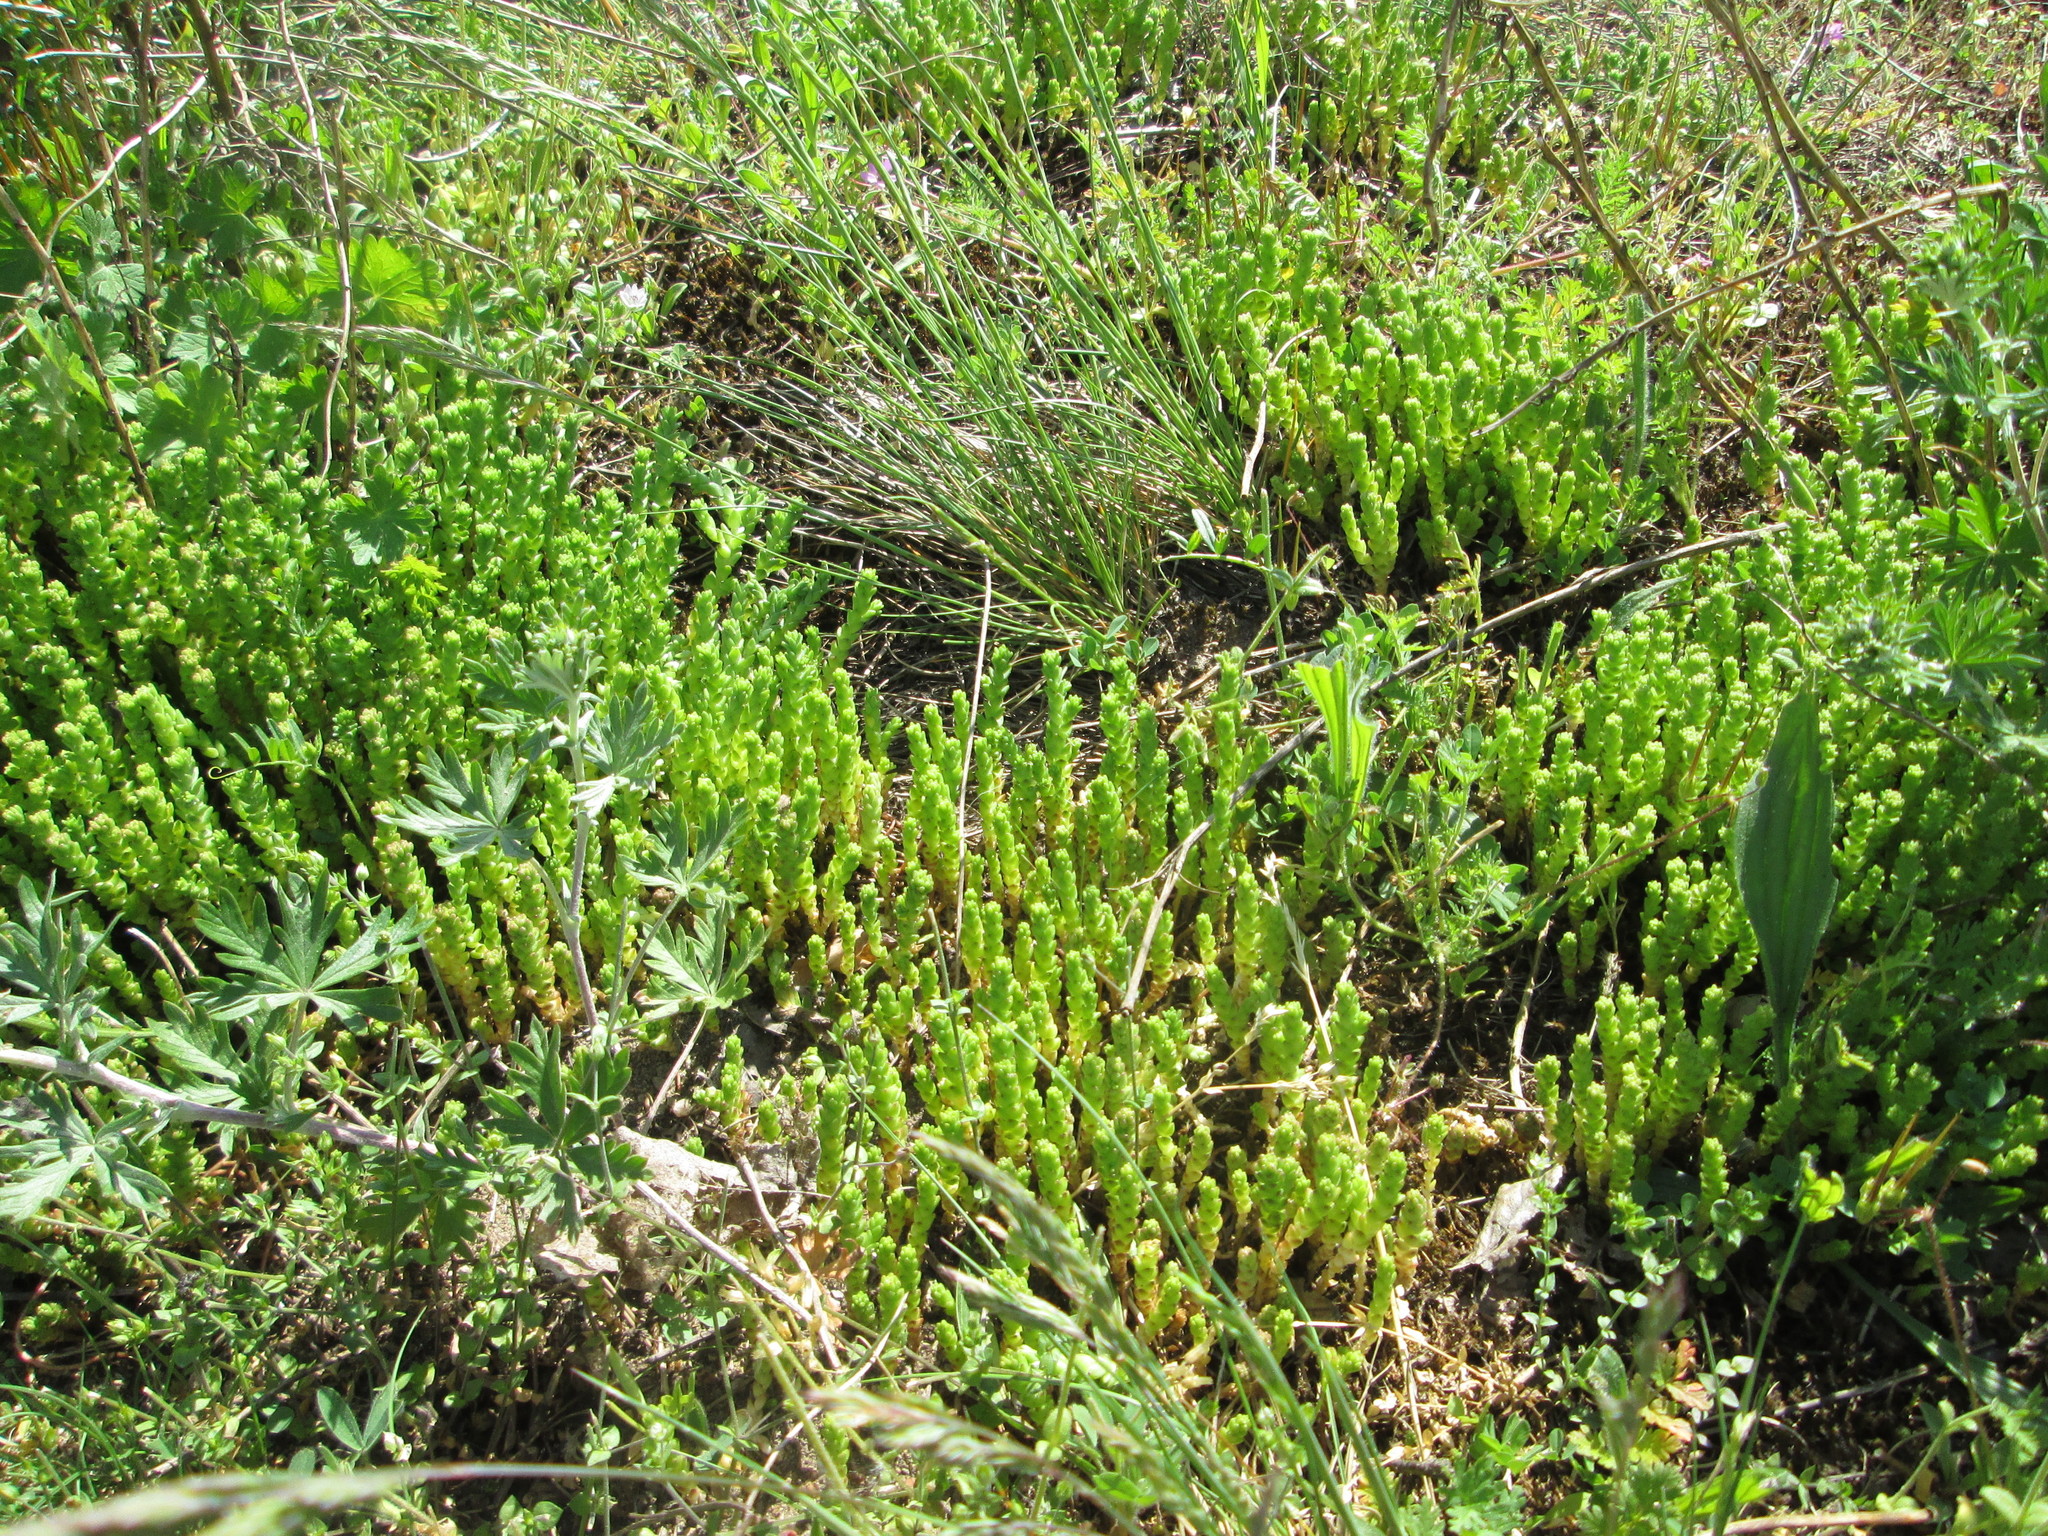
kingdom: Plantae
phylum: Tracheophyta
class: Magnoliopsida
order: Saxifragales
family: Crassulaceae
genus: Sedum
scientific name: Sedum acre
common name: Biting stonecrop
